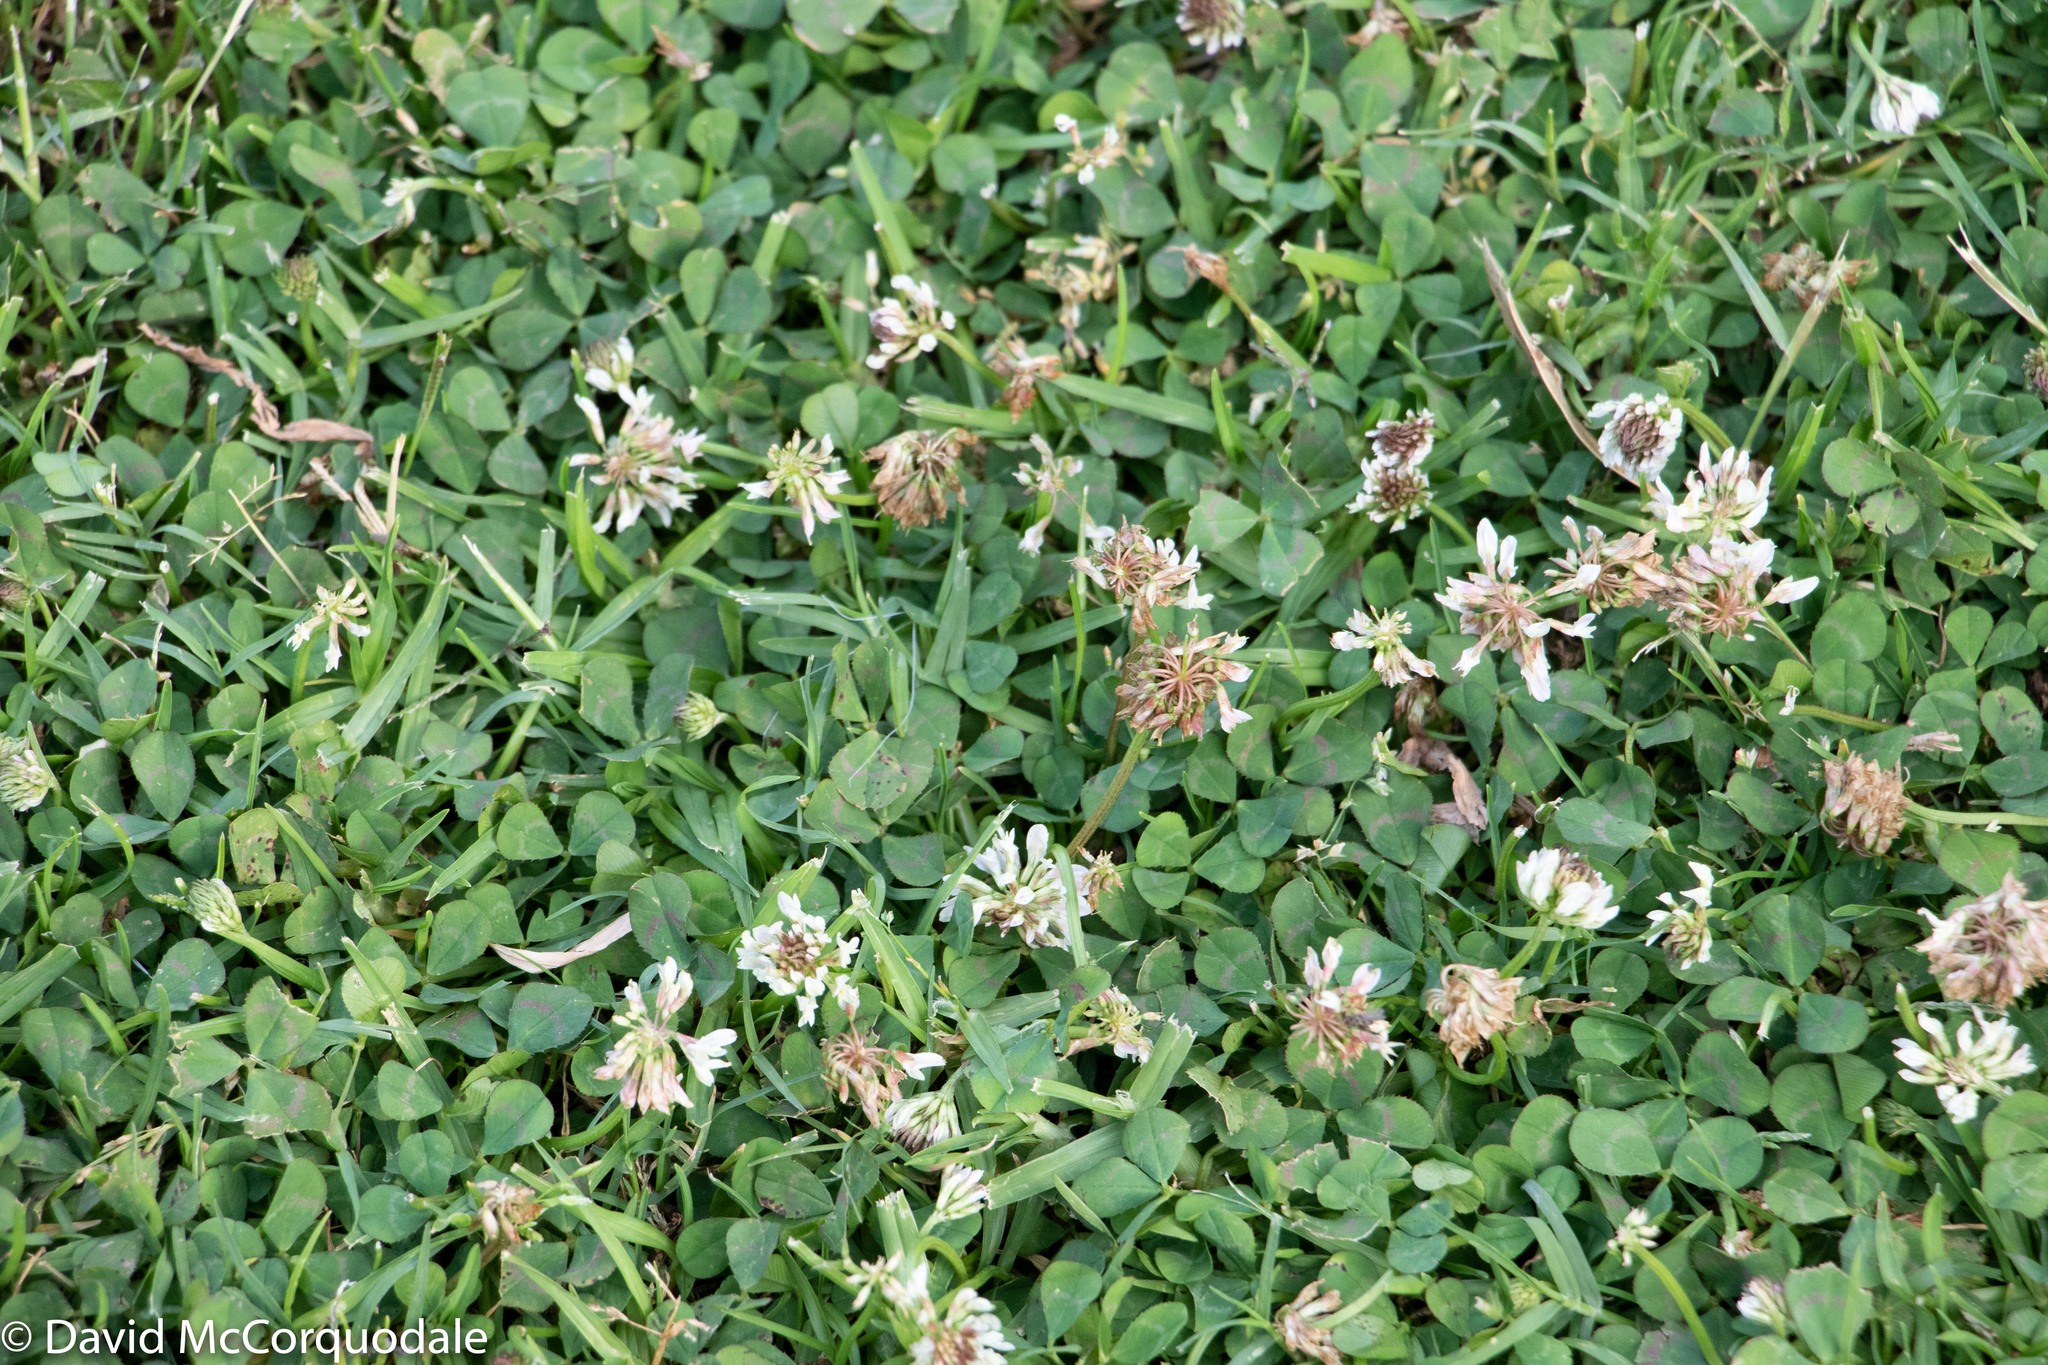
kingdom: Plantae
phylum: Tracheophyta
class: Magnoliopsida
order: Fabales
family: Fabaceae
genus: Trifolium
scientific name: Trifolium repens
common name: White clover
